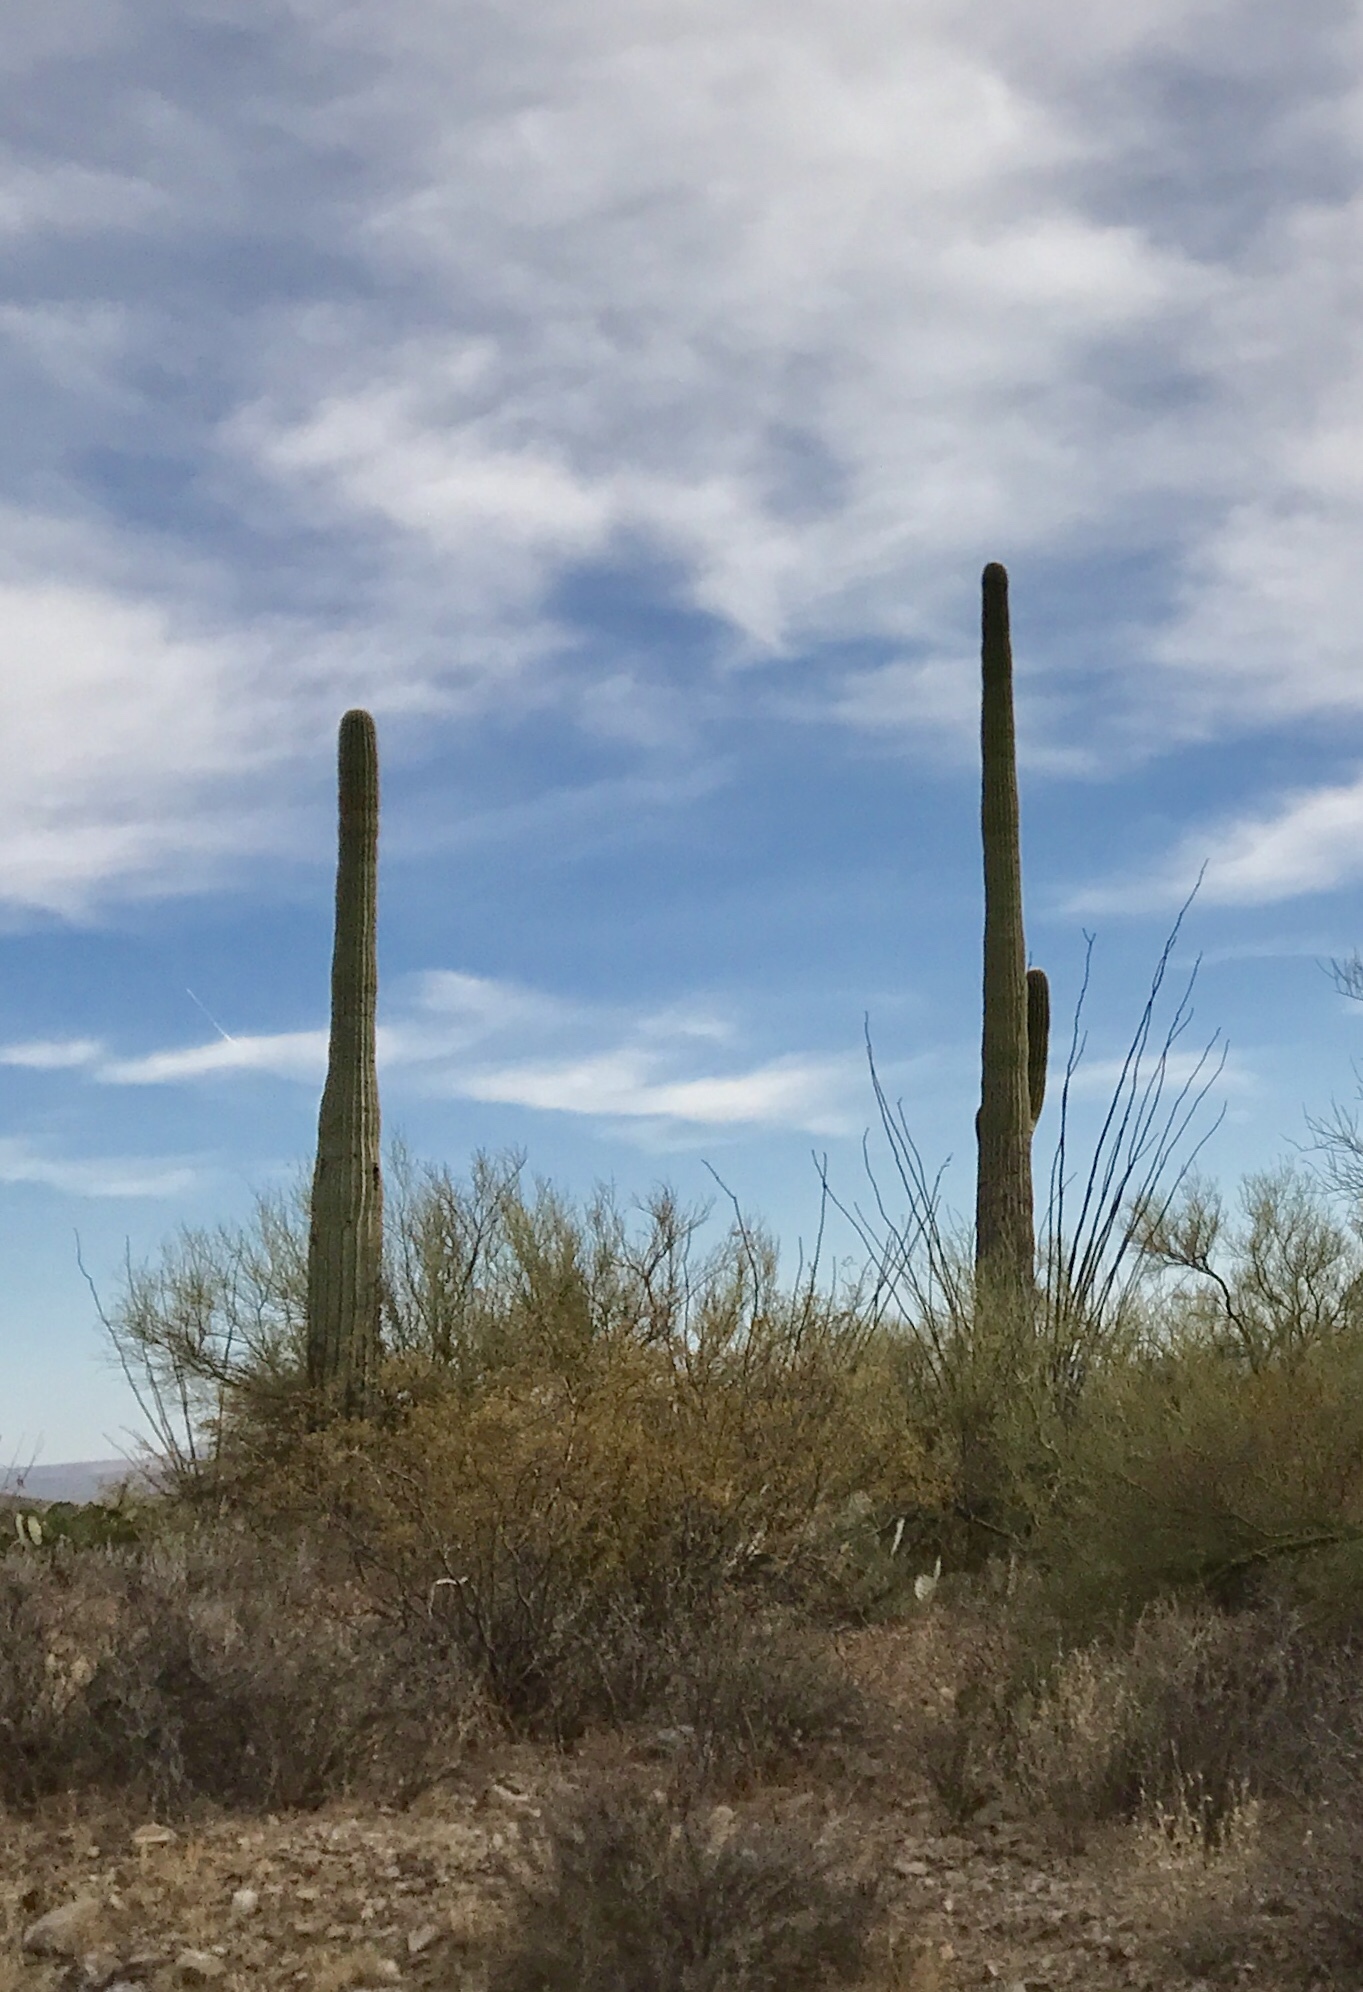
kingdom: Plantae
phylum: Tracheophyta
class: Magnoliopsida
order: Caryophyllales
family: Cactaceae
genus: Carnegiea
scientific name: Carnegiea gigantea
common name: Saguaro
